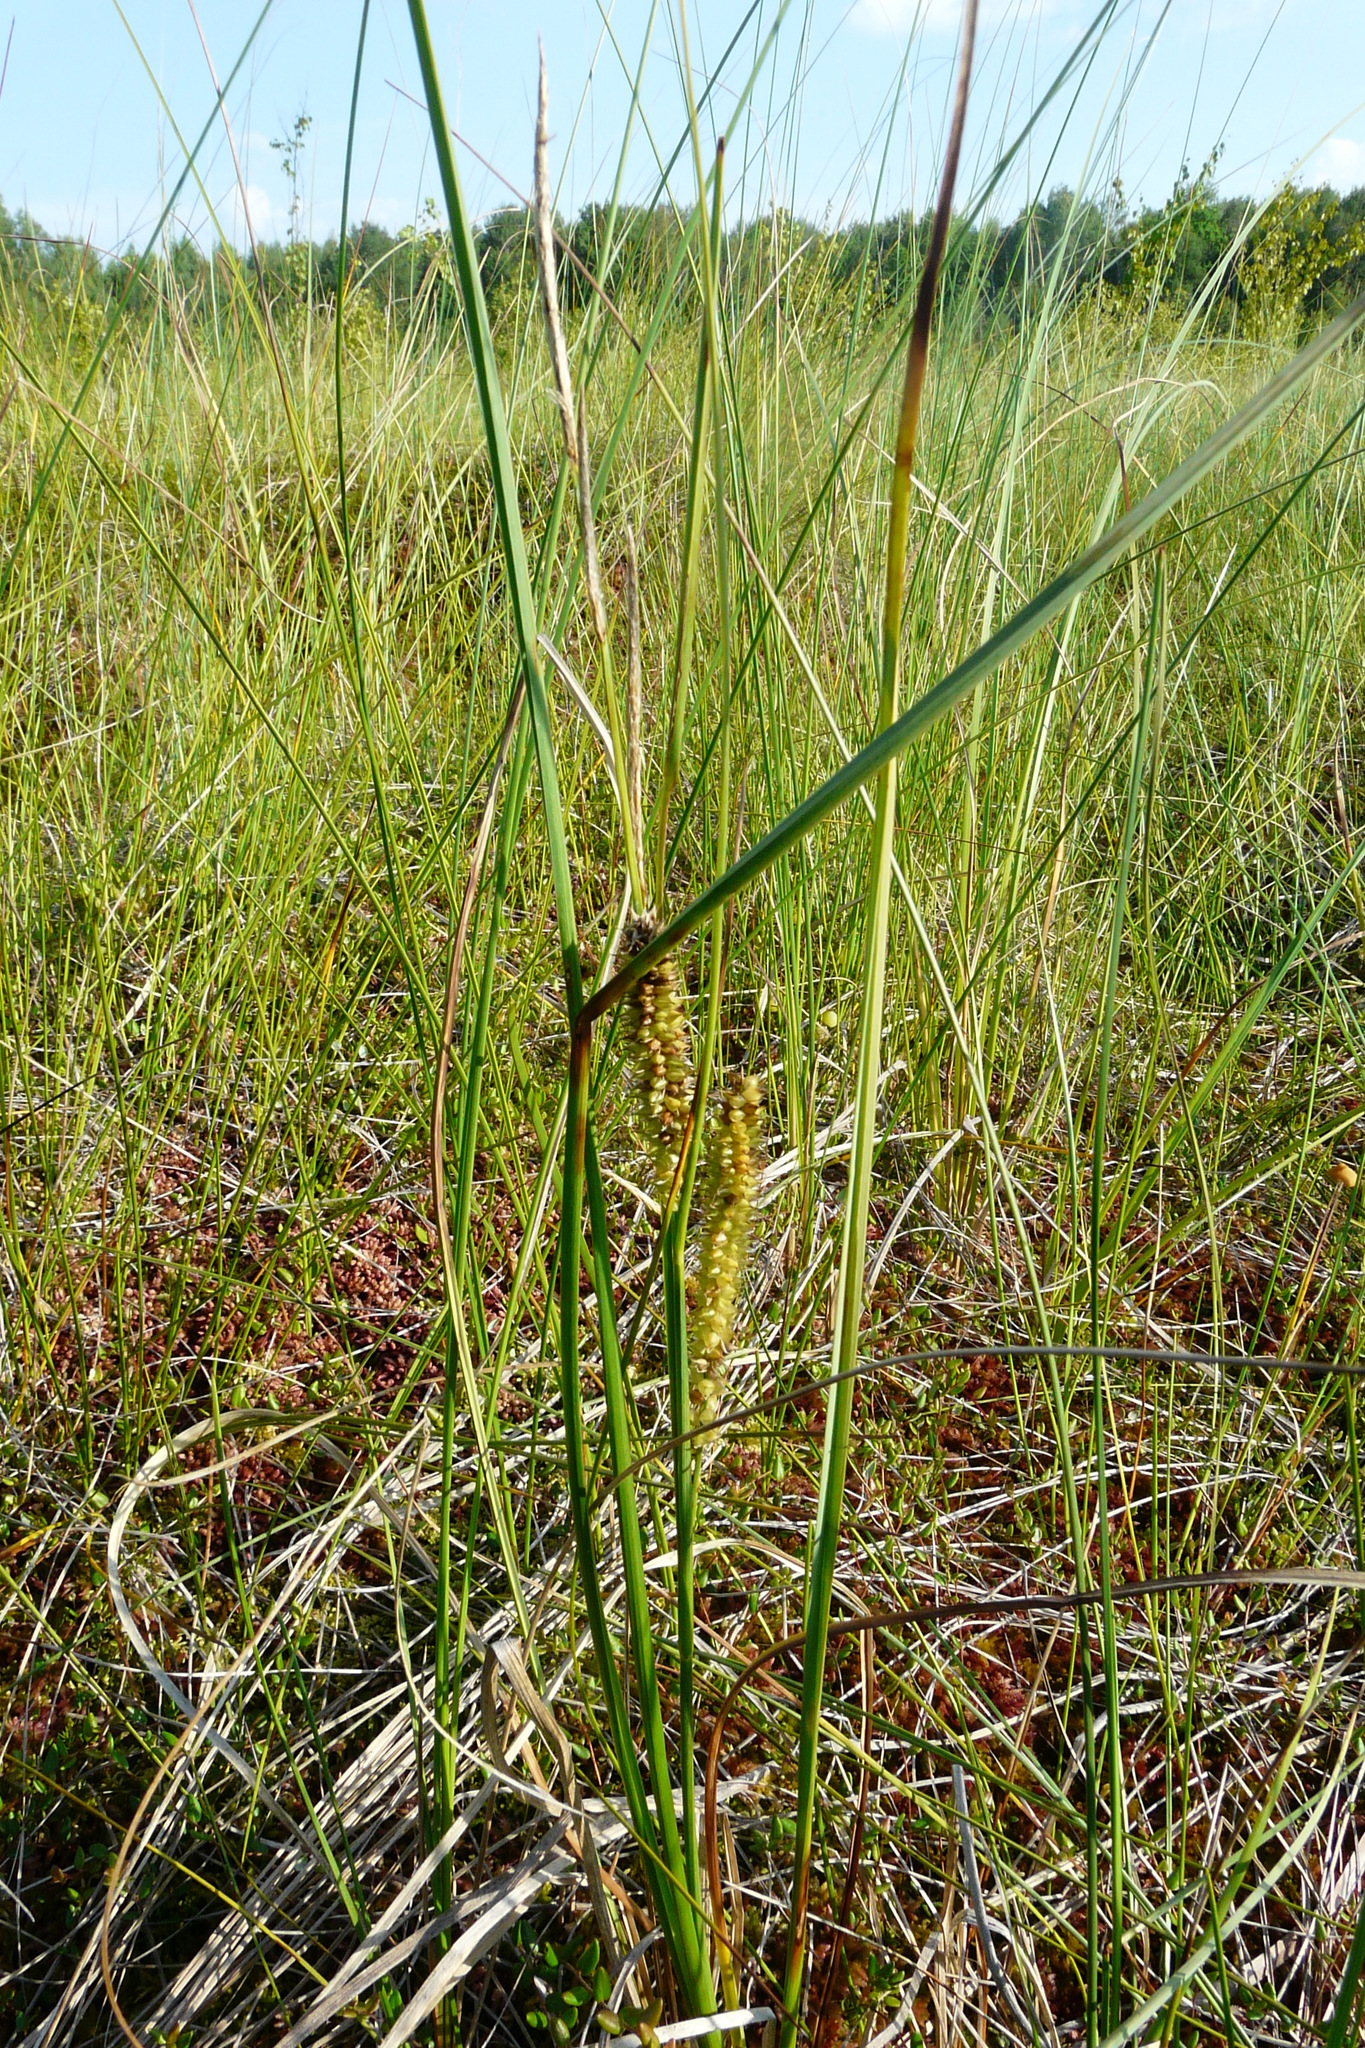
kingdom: Plantae
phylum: Tracheophyta
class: Liliopsida
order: Poales
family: Cyperaceae
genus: Carex
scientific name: Carex rostrata
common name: Bottle sedge
